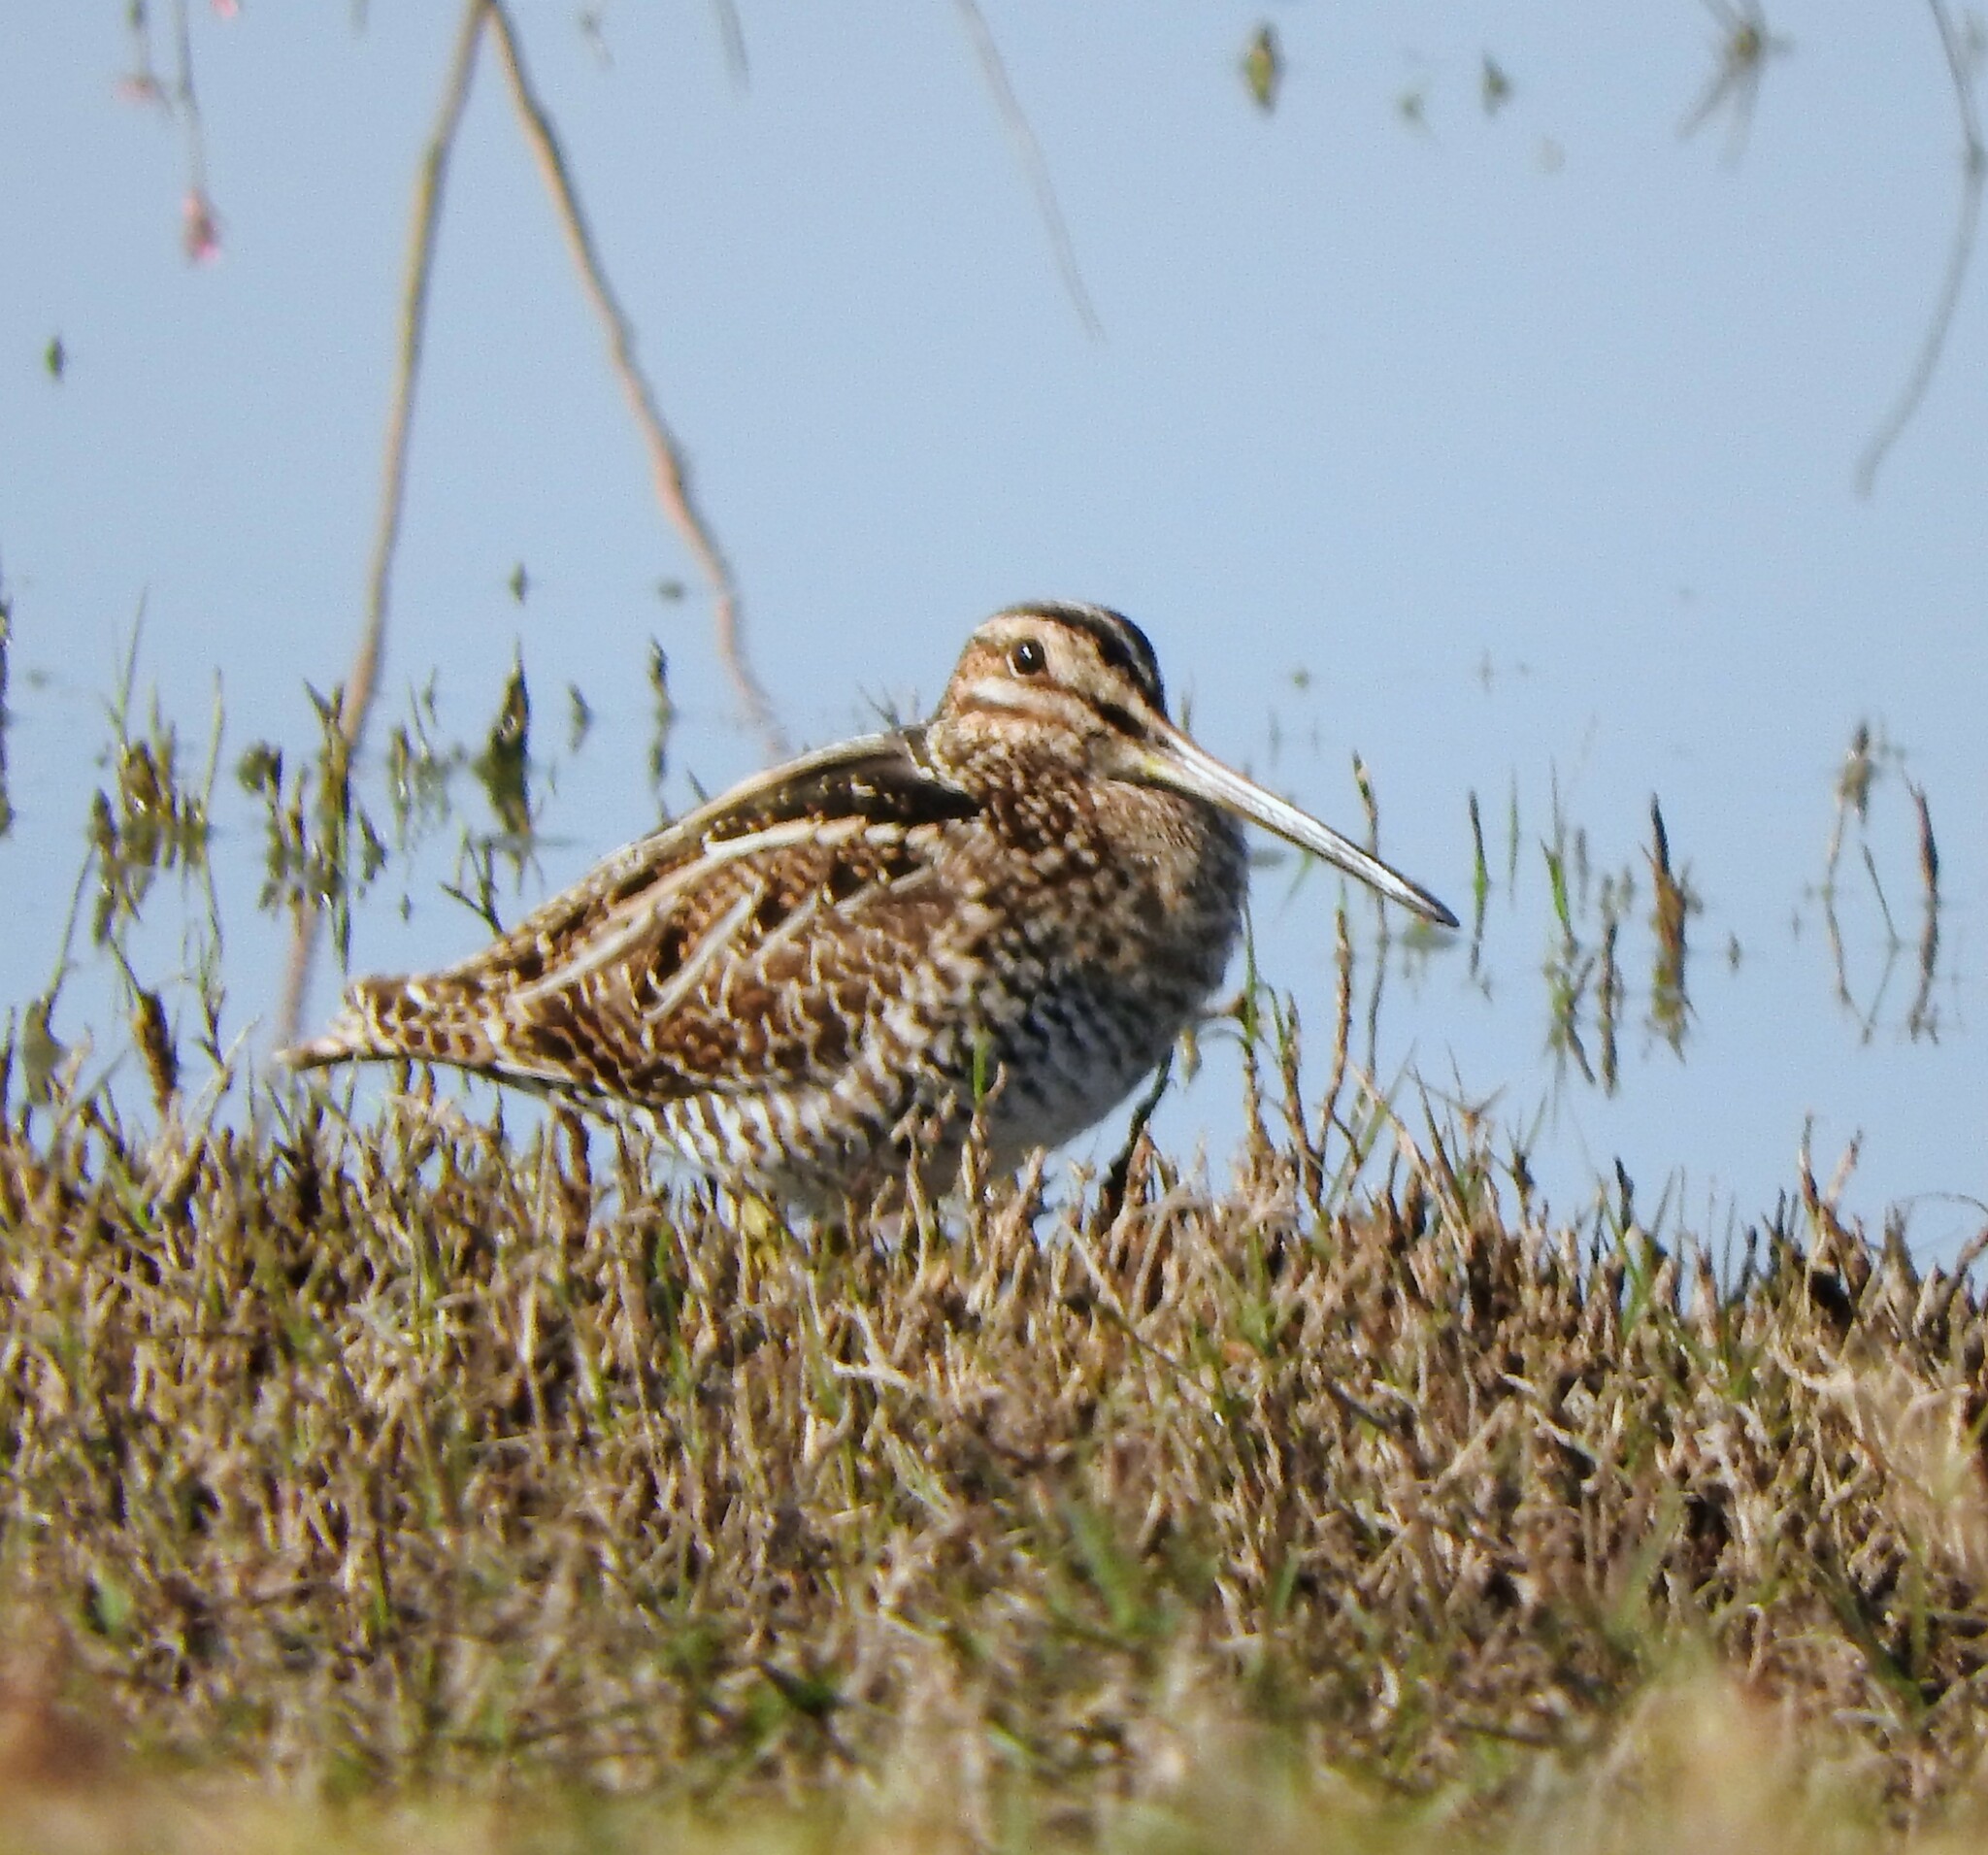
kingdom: Animalia
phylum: Chordata
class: Aves
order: Charadriiformes
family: Scolopacidae
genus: Gallinago
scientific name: Gallinago delicata
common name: Wilson's snipe
